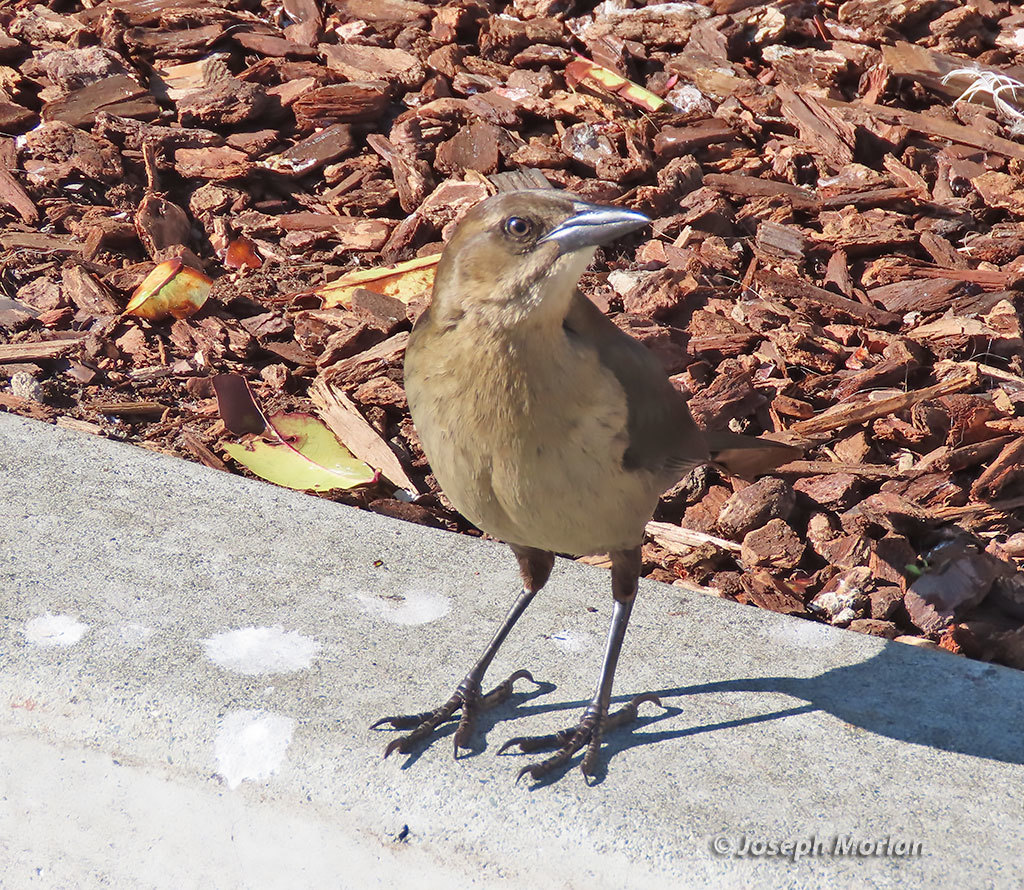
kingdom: Animalia
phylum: Chordata
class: Aves
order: Passeriformes
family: Icteridae
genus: Quiscalus
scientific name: Quiscalus mexicanus
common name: Great-tailed grackle
